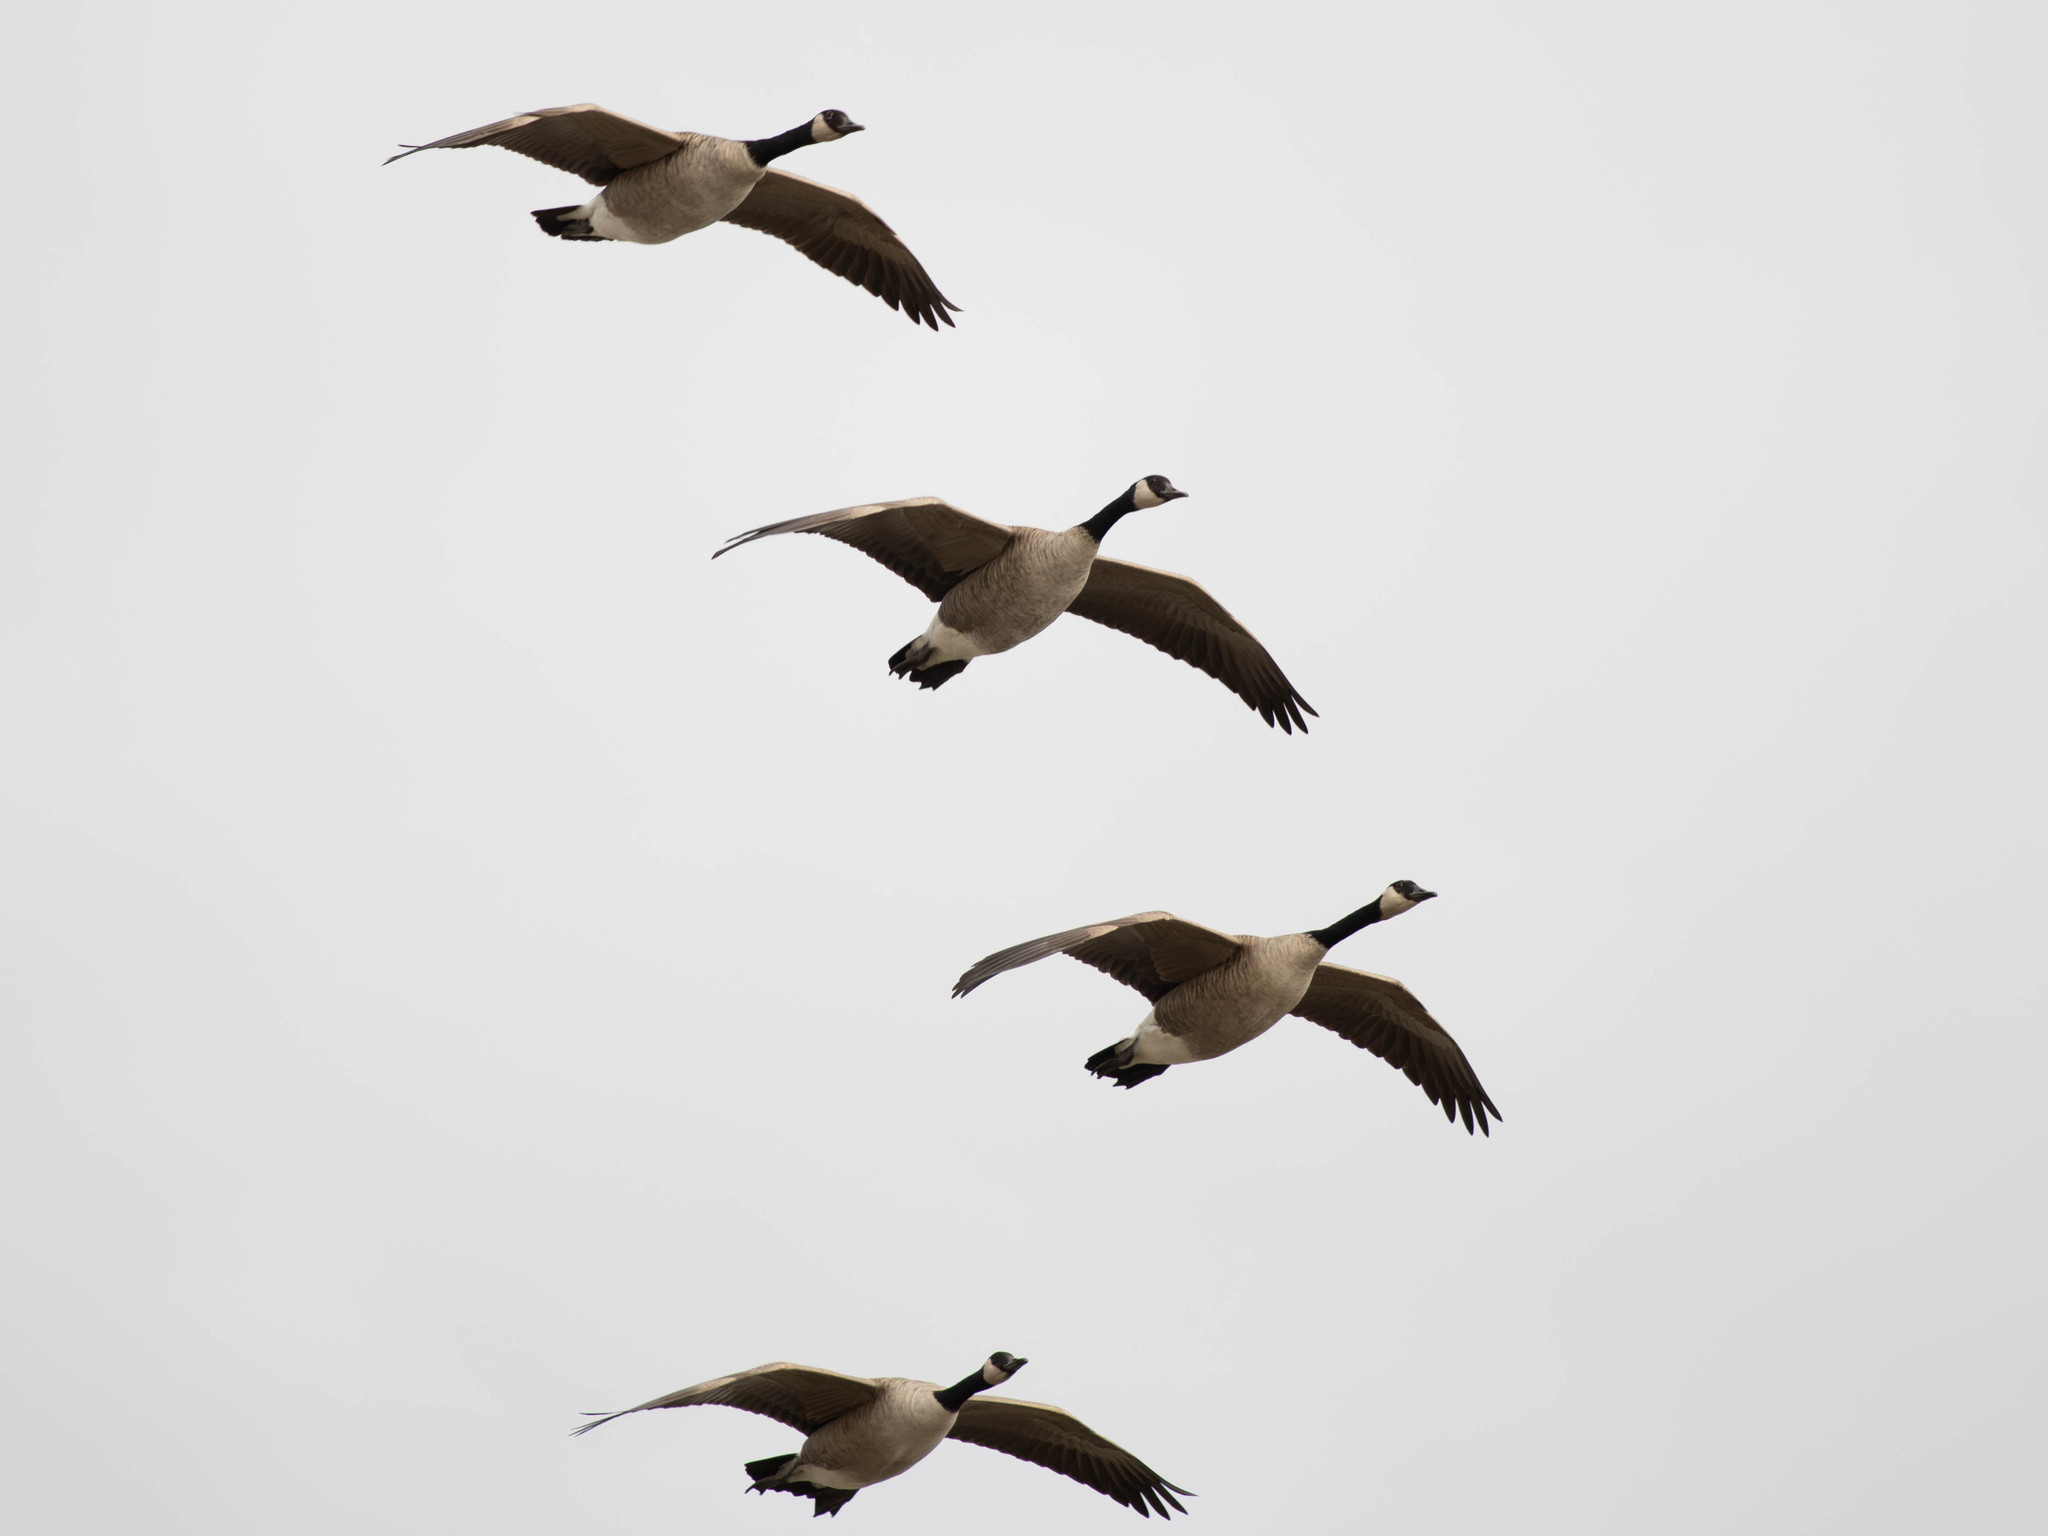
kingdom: Animalia
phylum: Chordata
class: Aves
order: Anseriformes
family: Anatidae
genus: Branta
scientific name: Branta canadensis
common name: Canada goose
